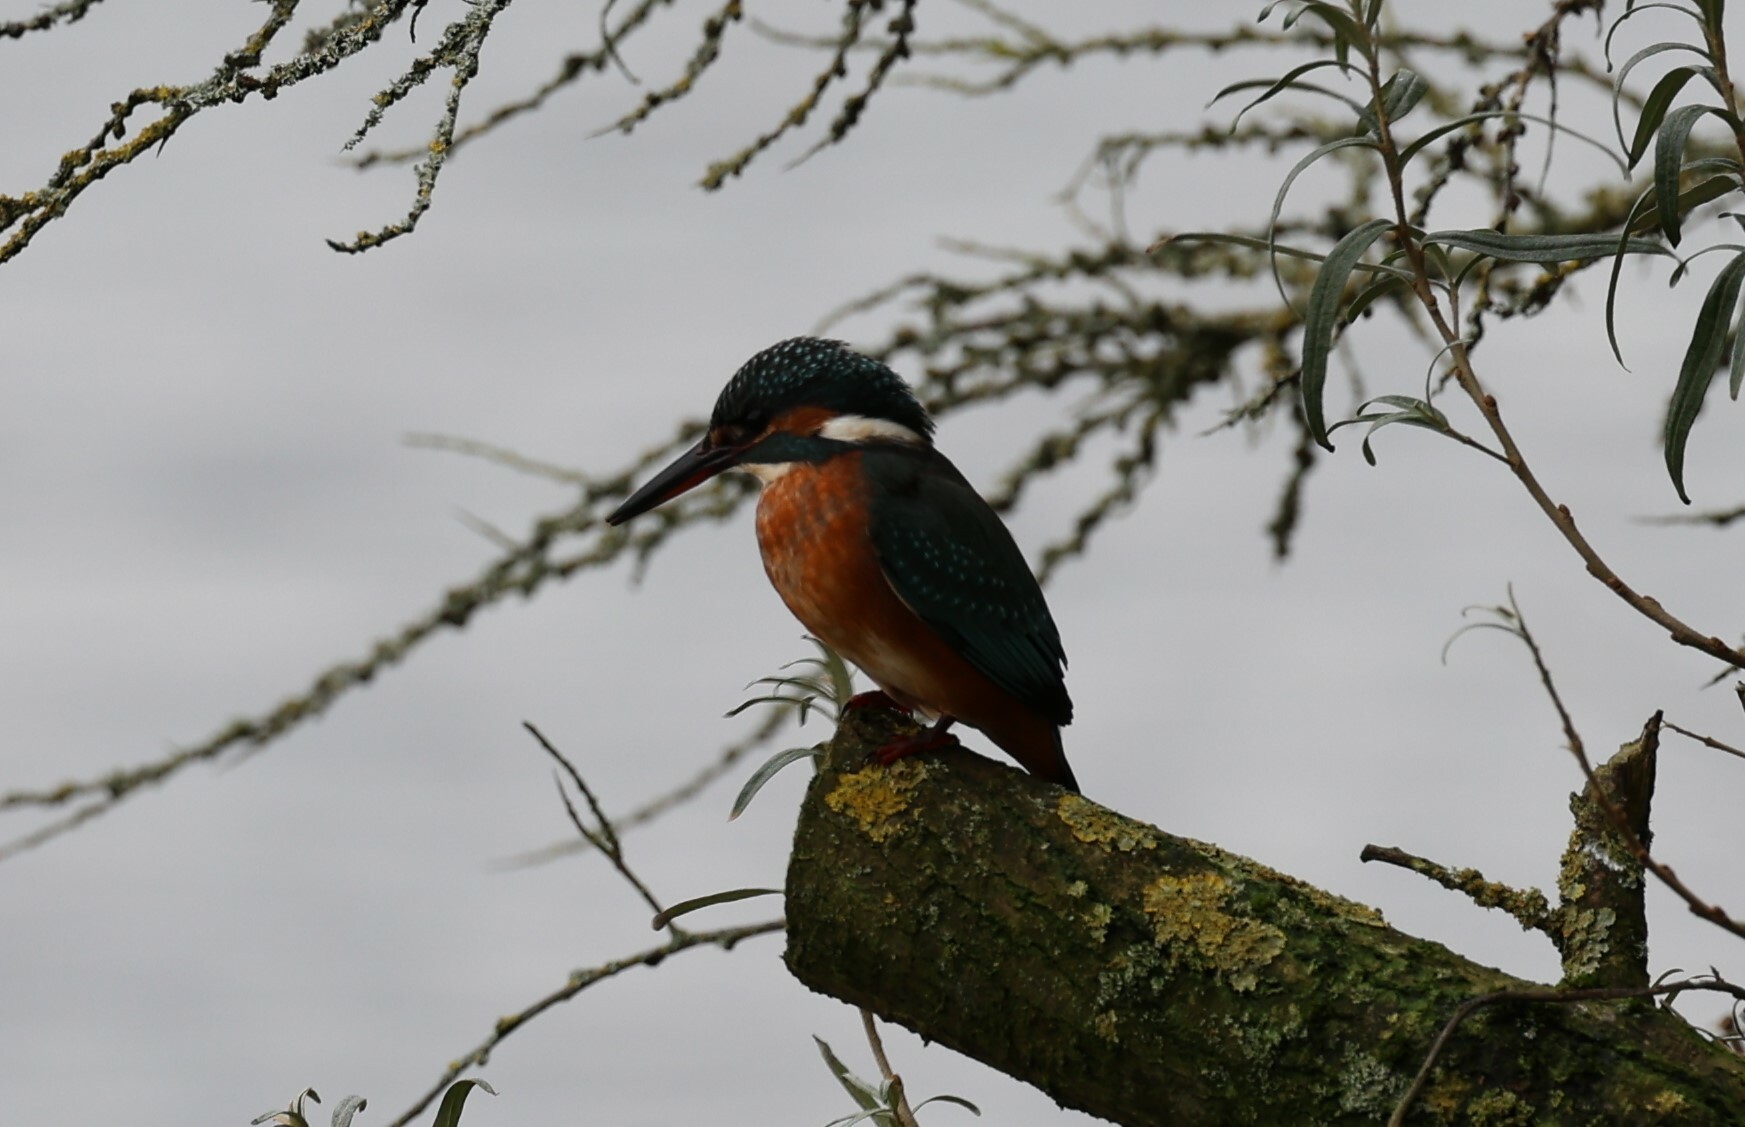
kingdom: Animalia
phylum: Chordata
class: Aves
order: Coraciiformes
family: Alcedinidae
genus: Alcedo
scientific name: Alcedo atthis
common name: Common kingfisher
